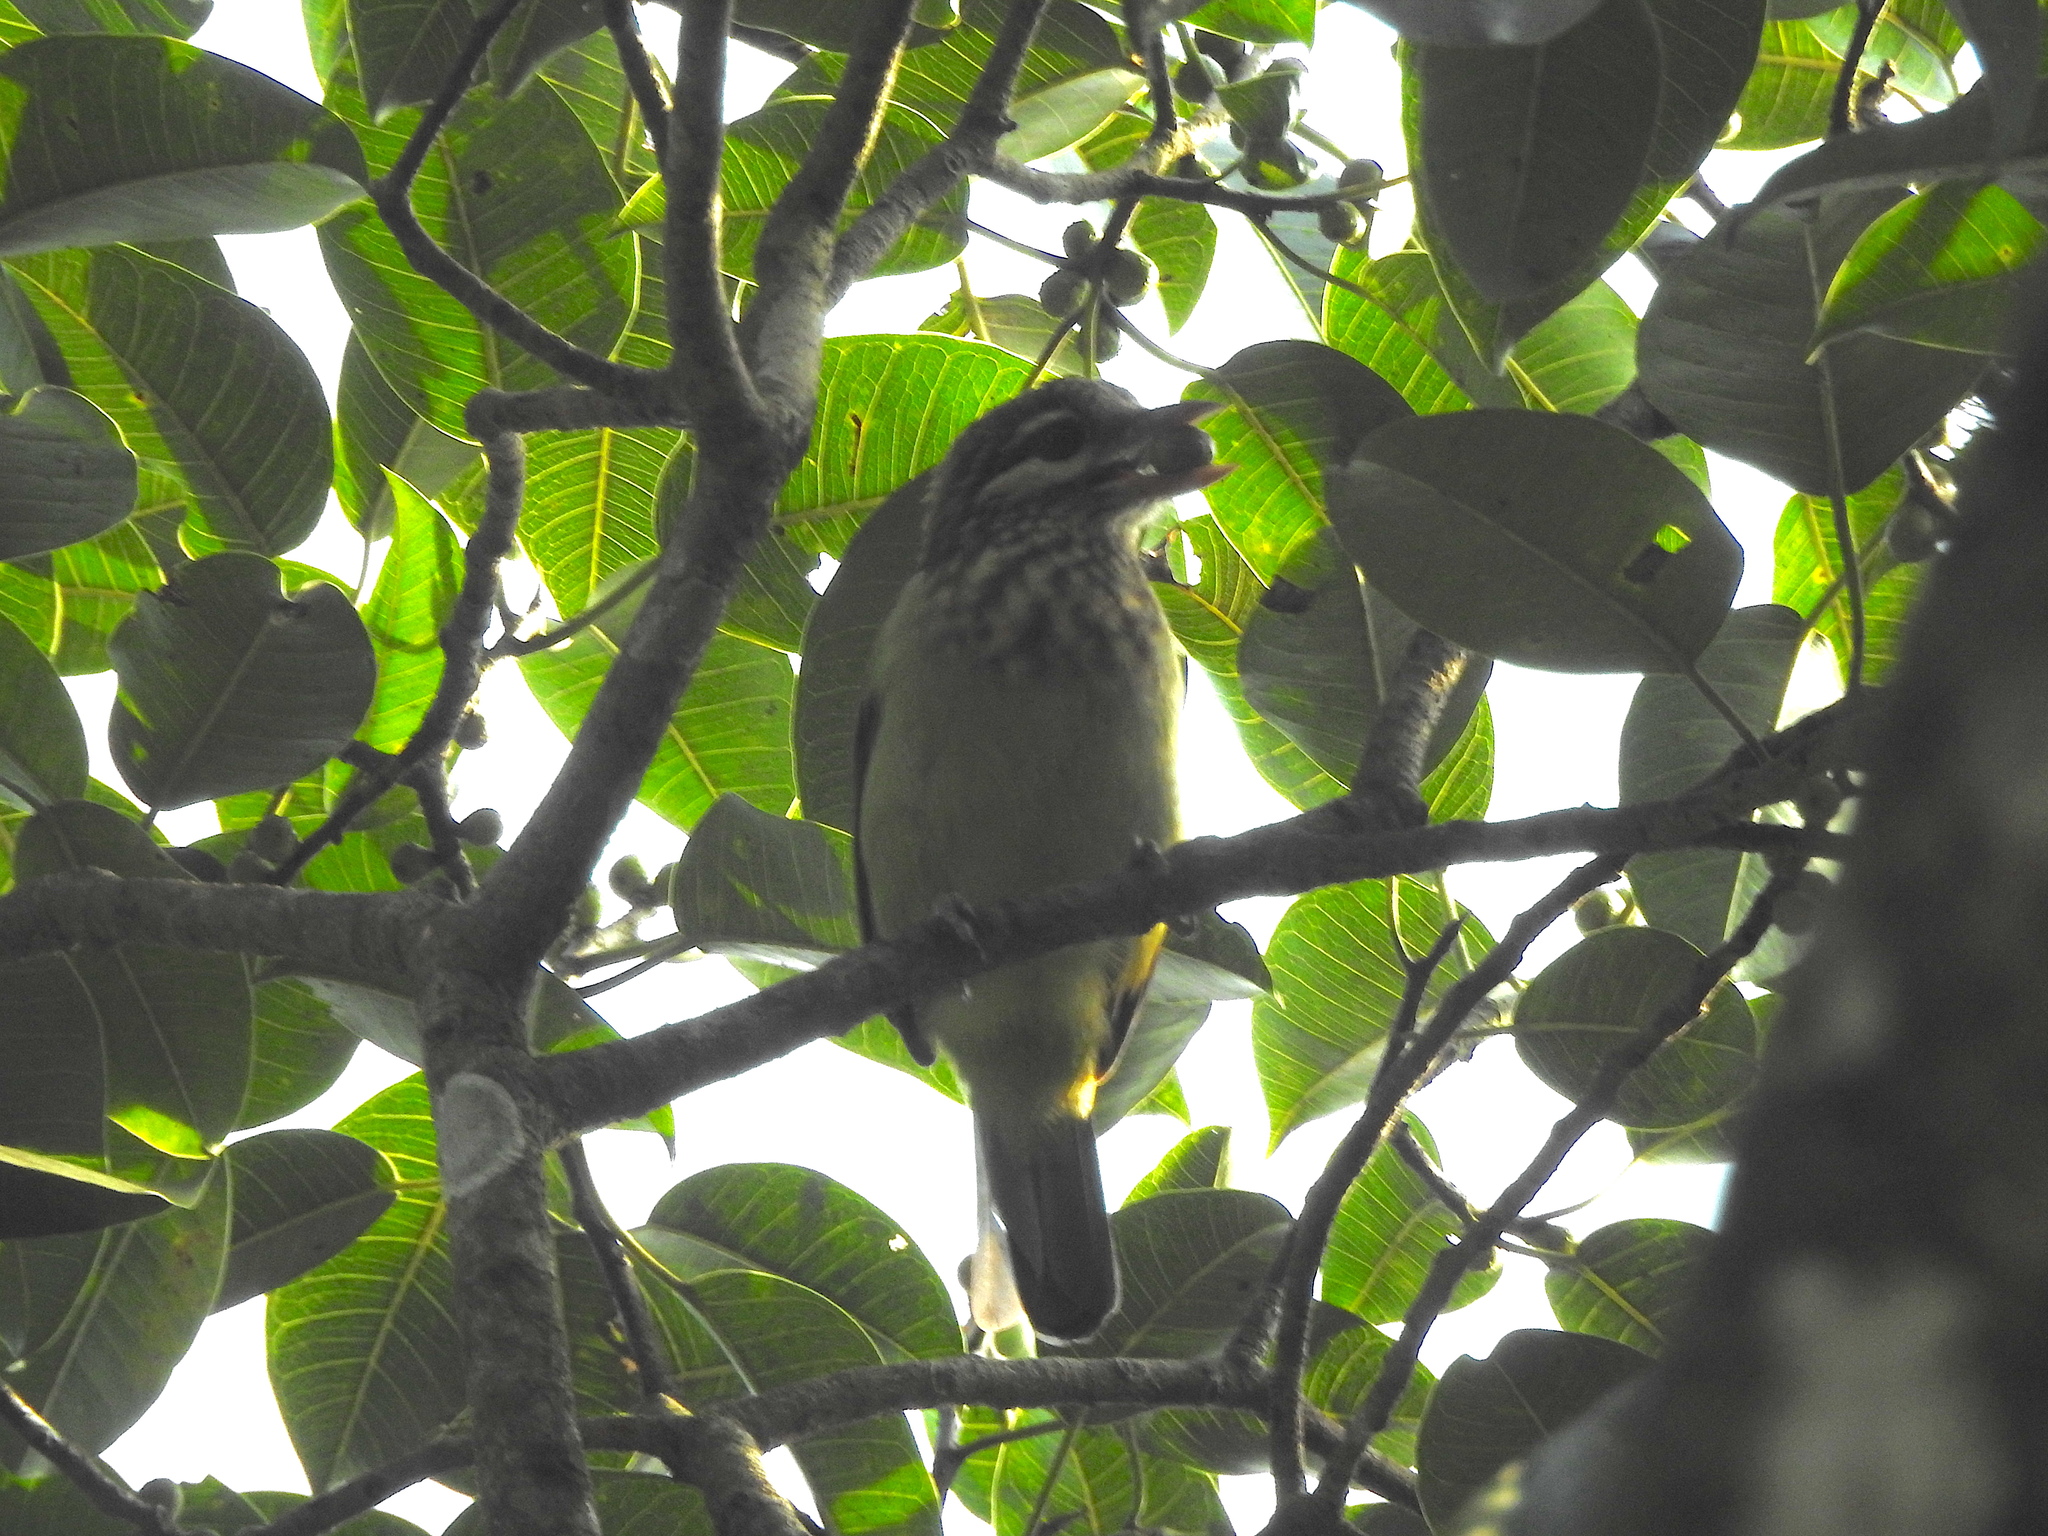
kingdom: Animalia
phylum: Chordata
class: Aves
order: Piciformes
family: Megalaimidae
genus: Psilopogon
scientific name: Psilopogon viridis
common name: White-cheeked barbet
